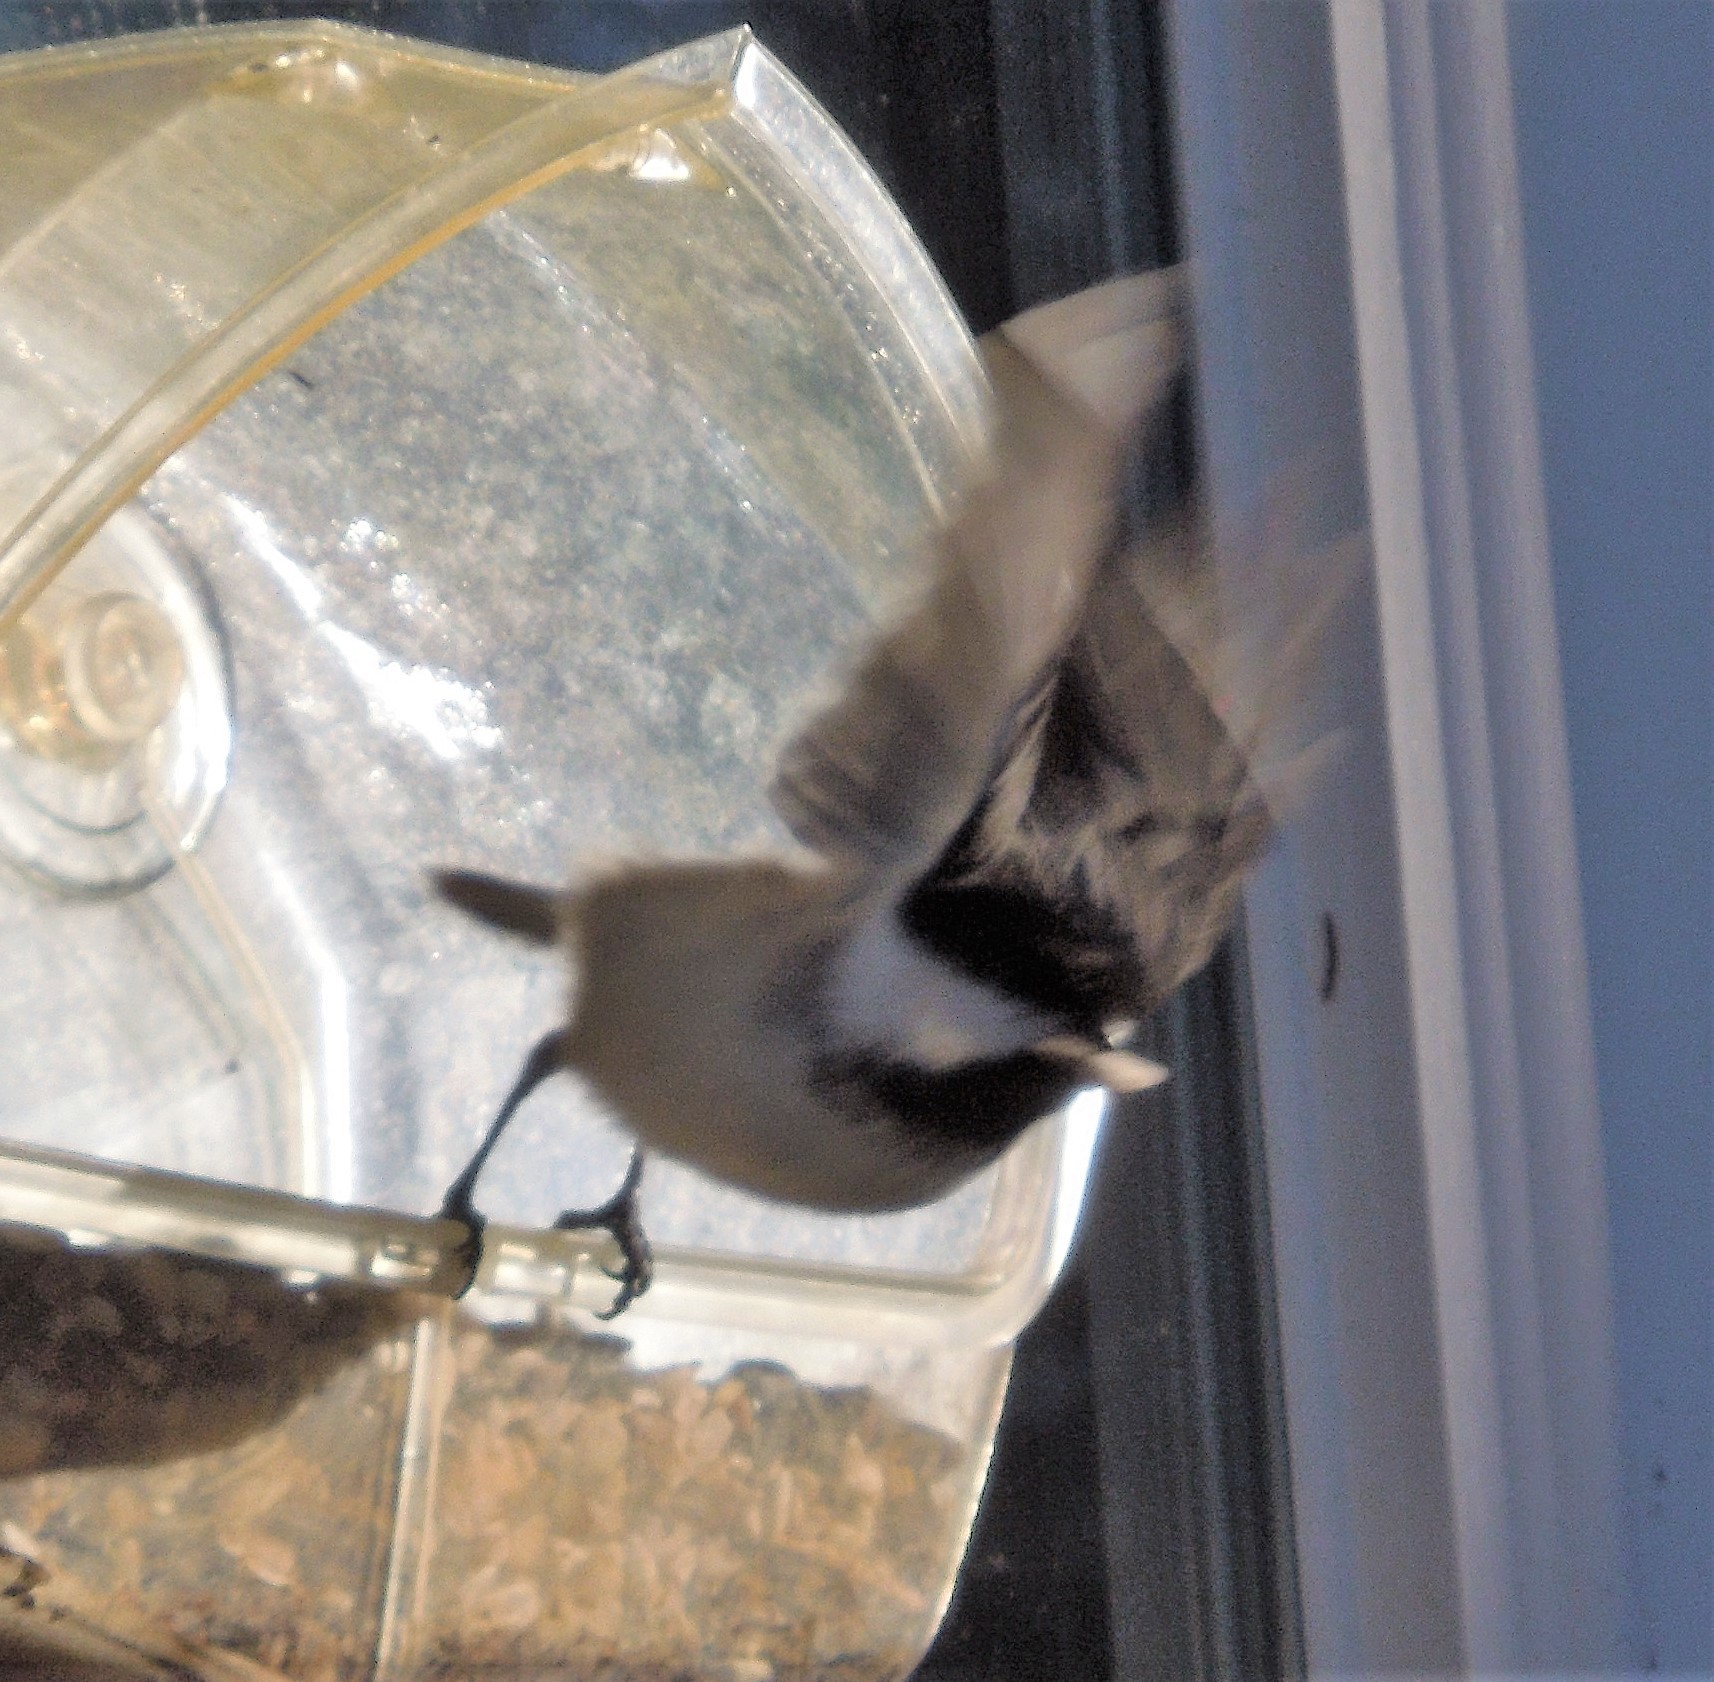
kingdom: Animalia
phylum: Chordata
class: Aves
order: Passeriformes
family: Paridae
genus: Poecile
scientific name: Poecile atricapillus
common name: Black-capped chickadee
